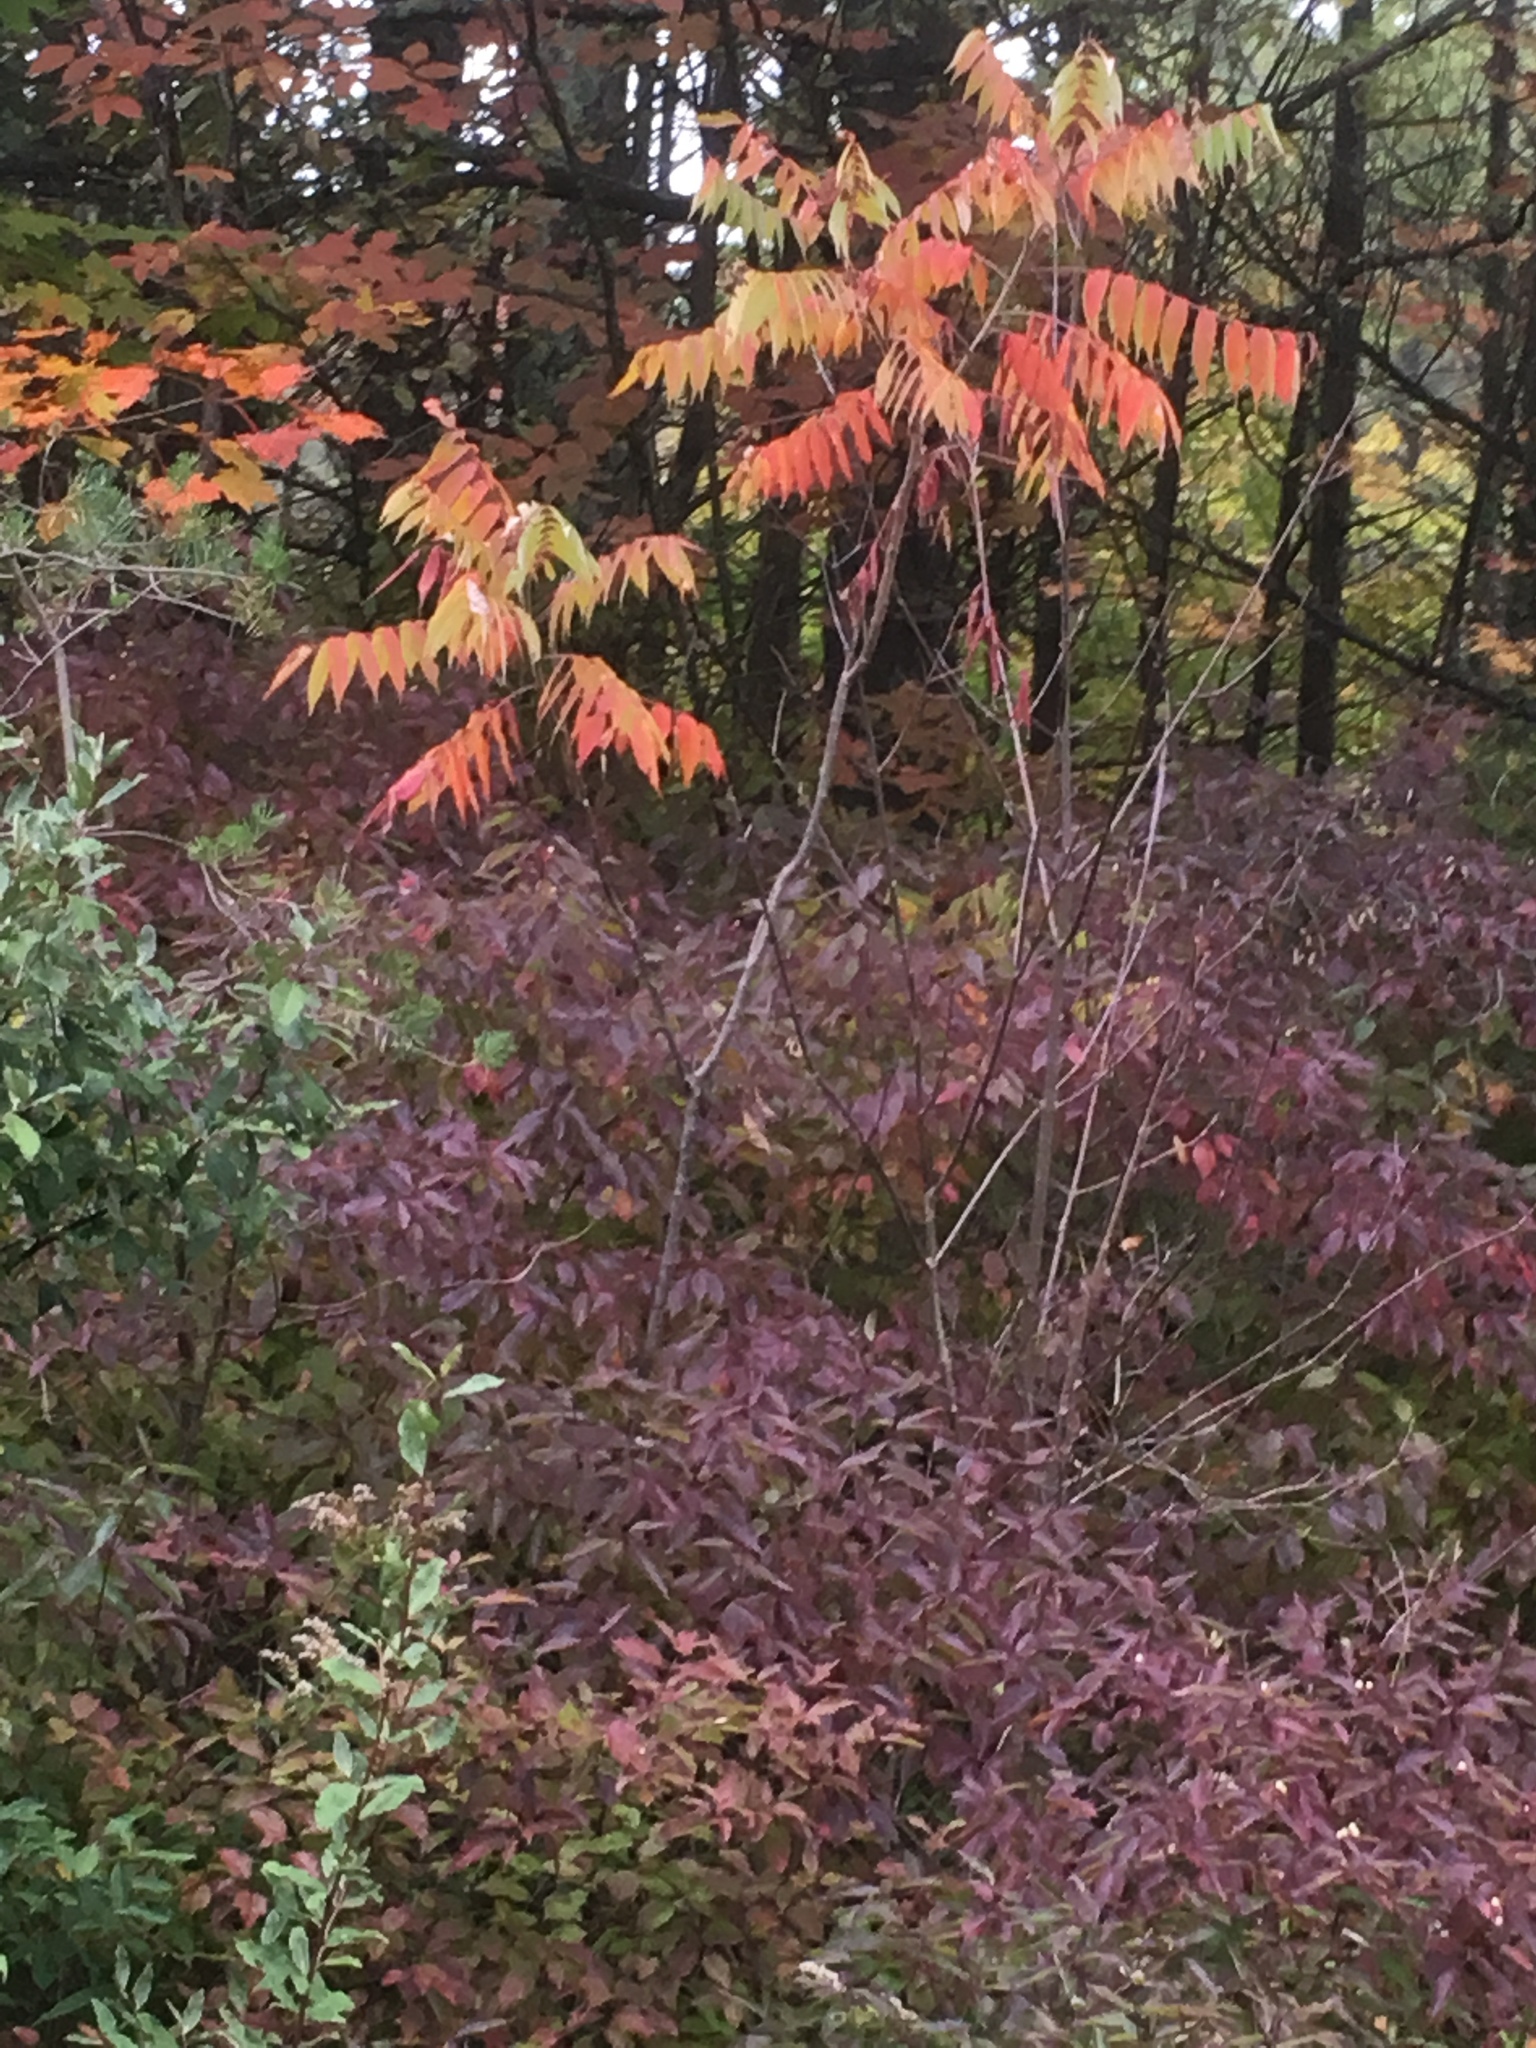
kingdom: Plantae
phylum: Tracheophyta
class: Magnoliopsida
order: Sapindales
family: Anacardiaceae
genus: Rhus
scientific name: Rhus typhina
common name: Staghorn sumac
